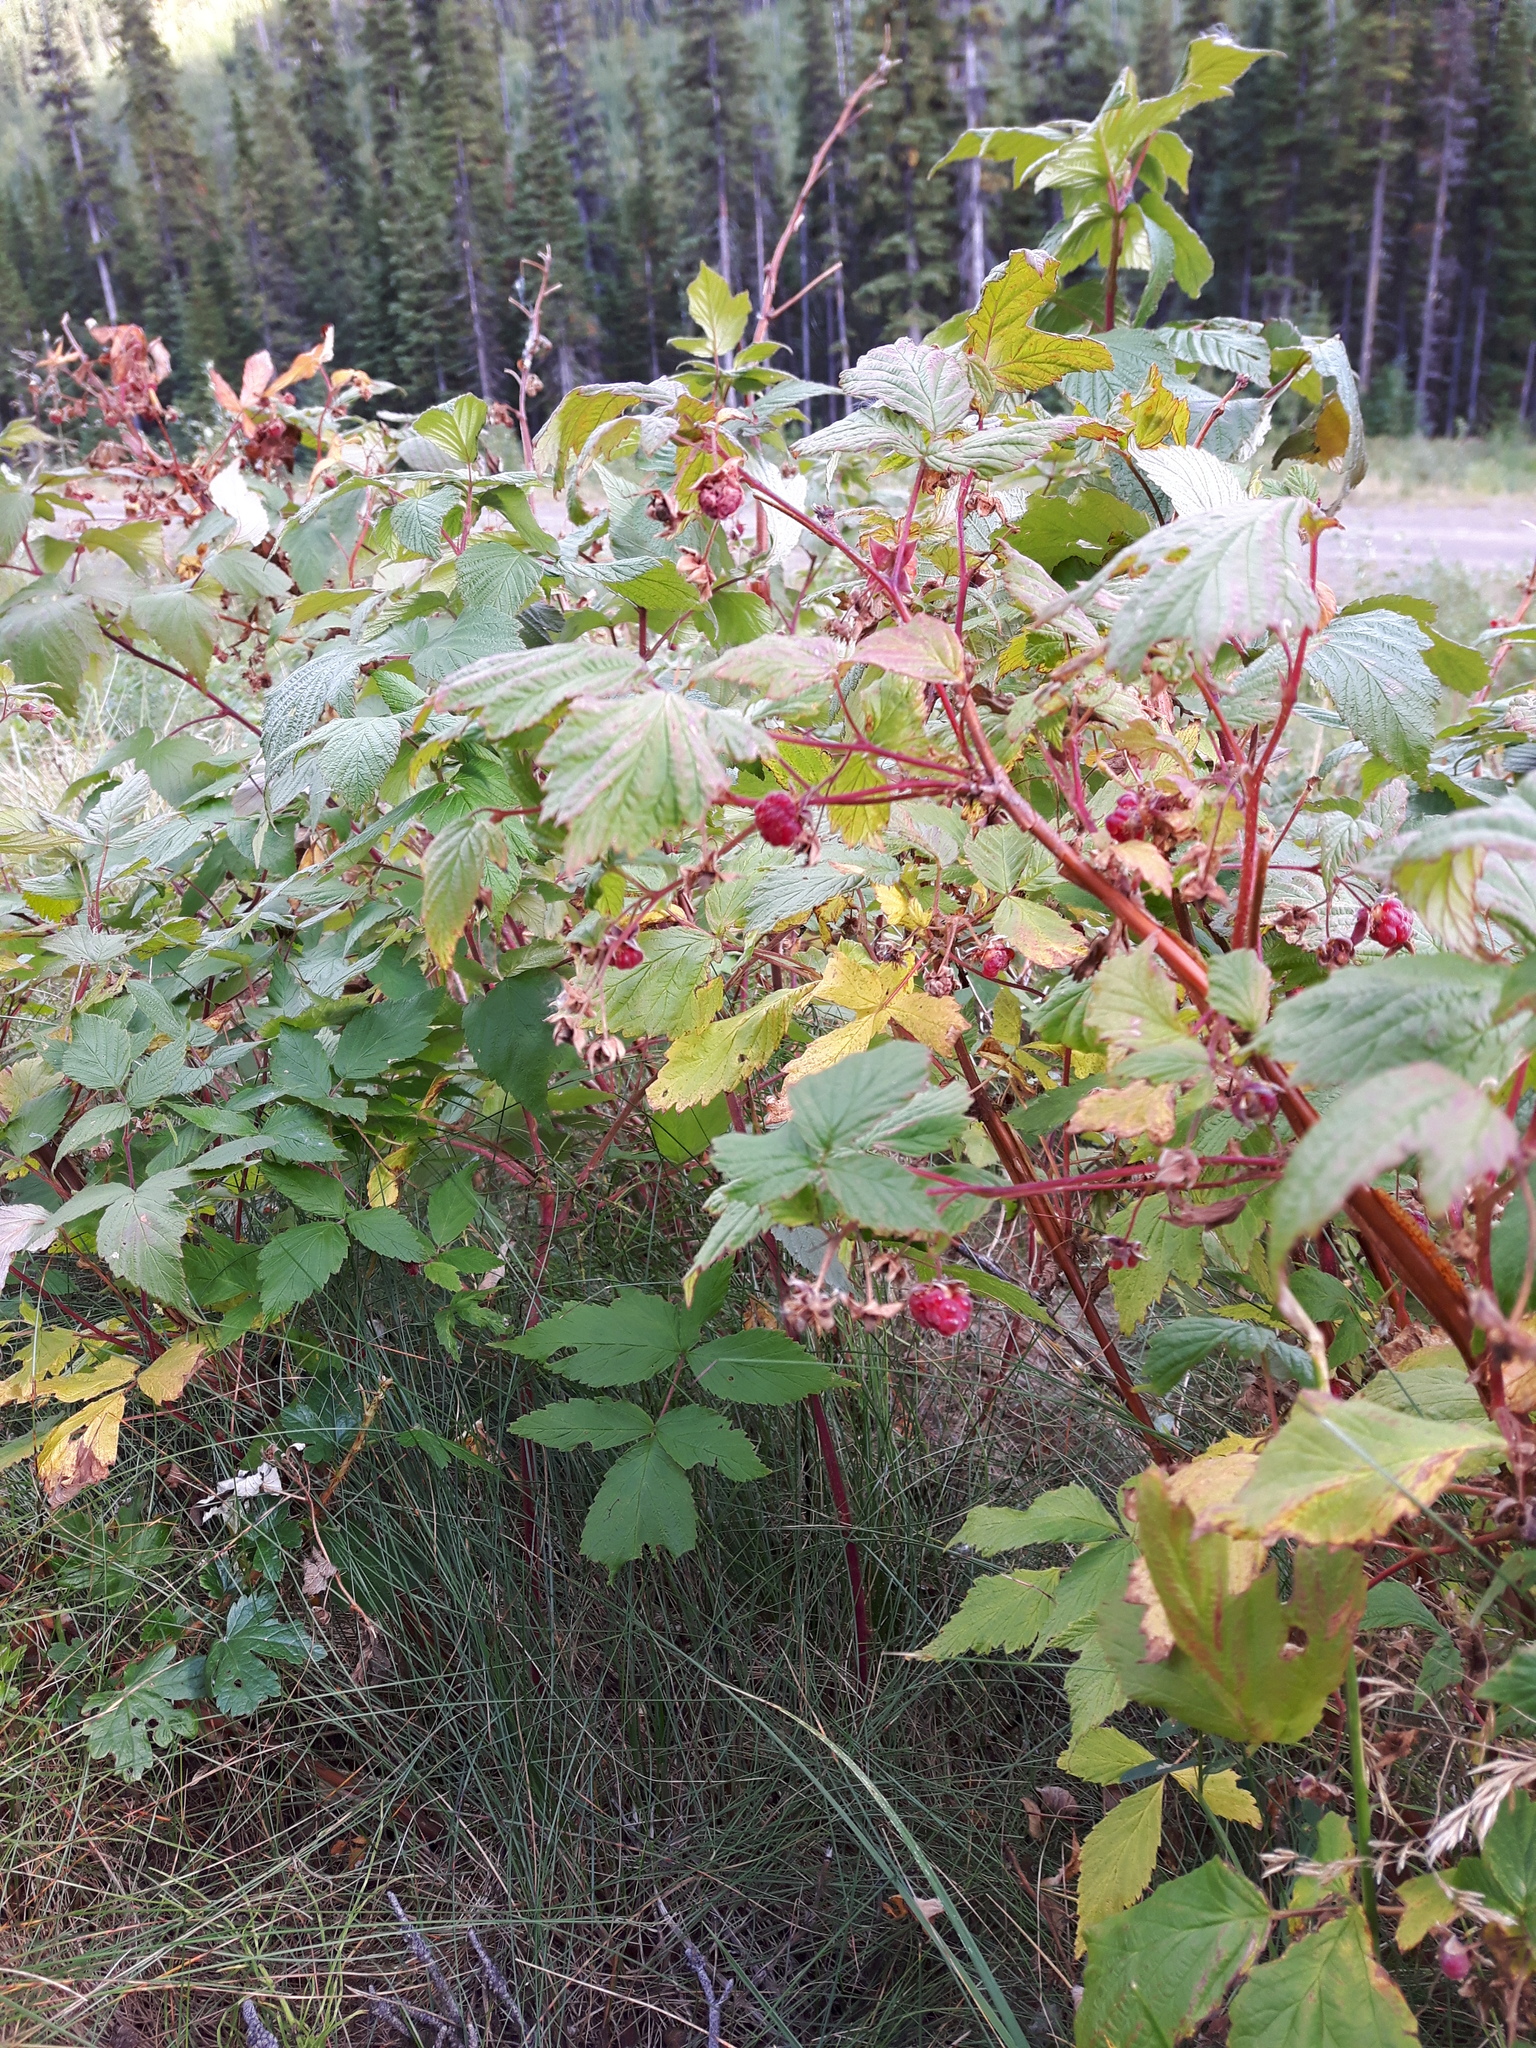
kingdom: Plantae
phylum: Tracheophyta
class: Magnoliopsida
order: Rosales
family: Rosaceae
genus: Rubus
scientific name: Rubus idaeus
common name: Raspberry
